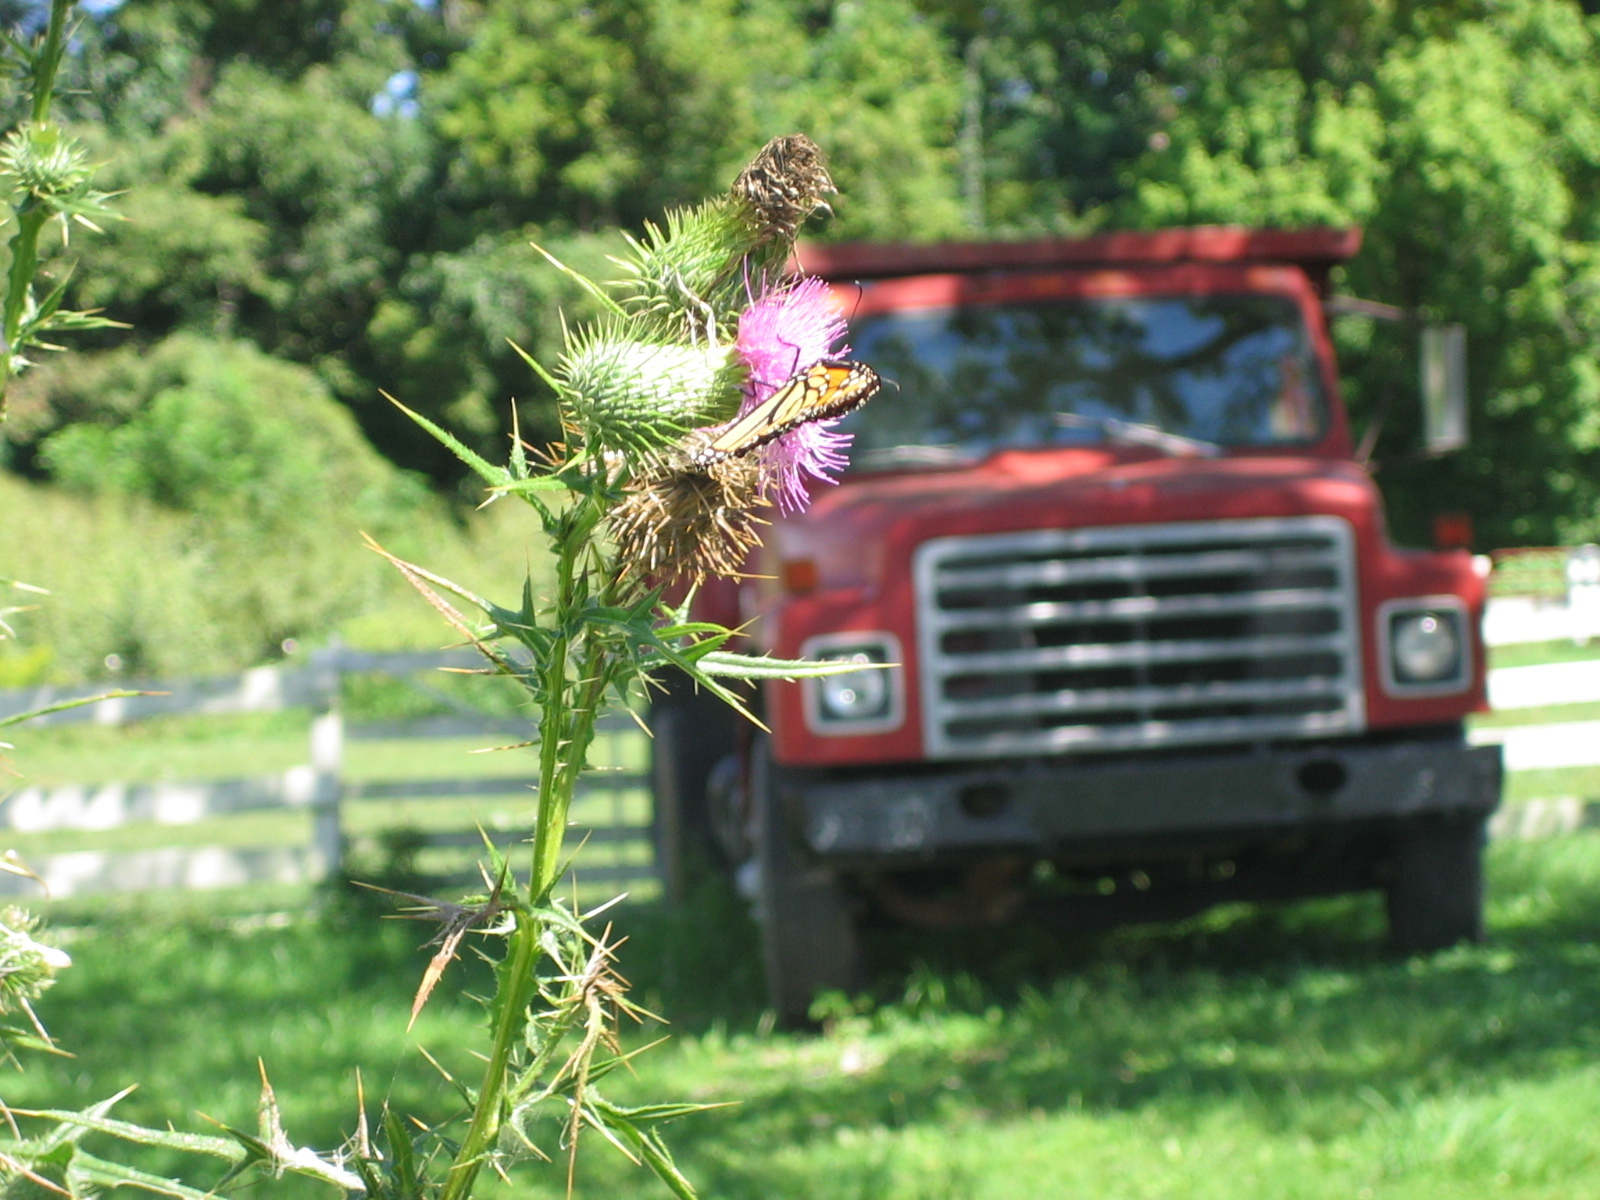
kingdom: Animalia
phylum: Arthropoda
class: Insecta
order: Lepidoptera
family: Nymphalidae
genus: Danaus
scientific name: Danaus plexippus
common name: Monarch
